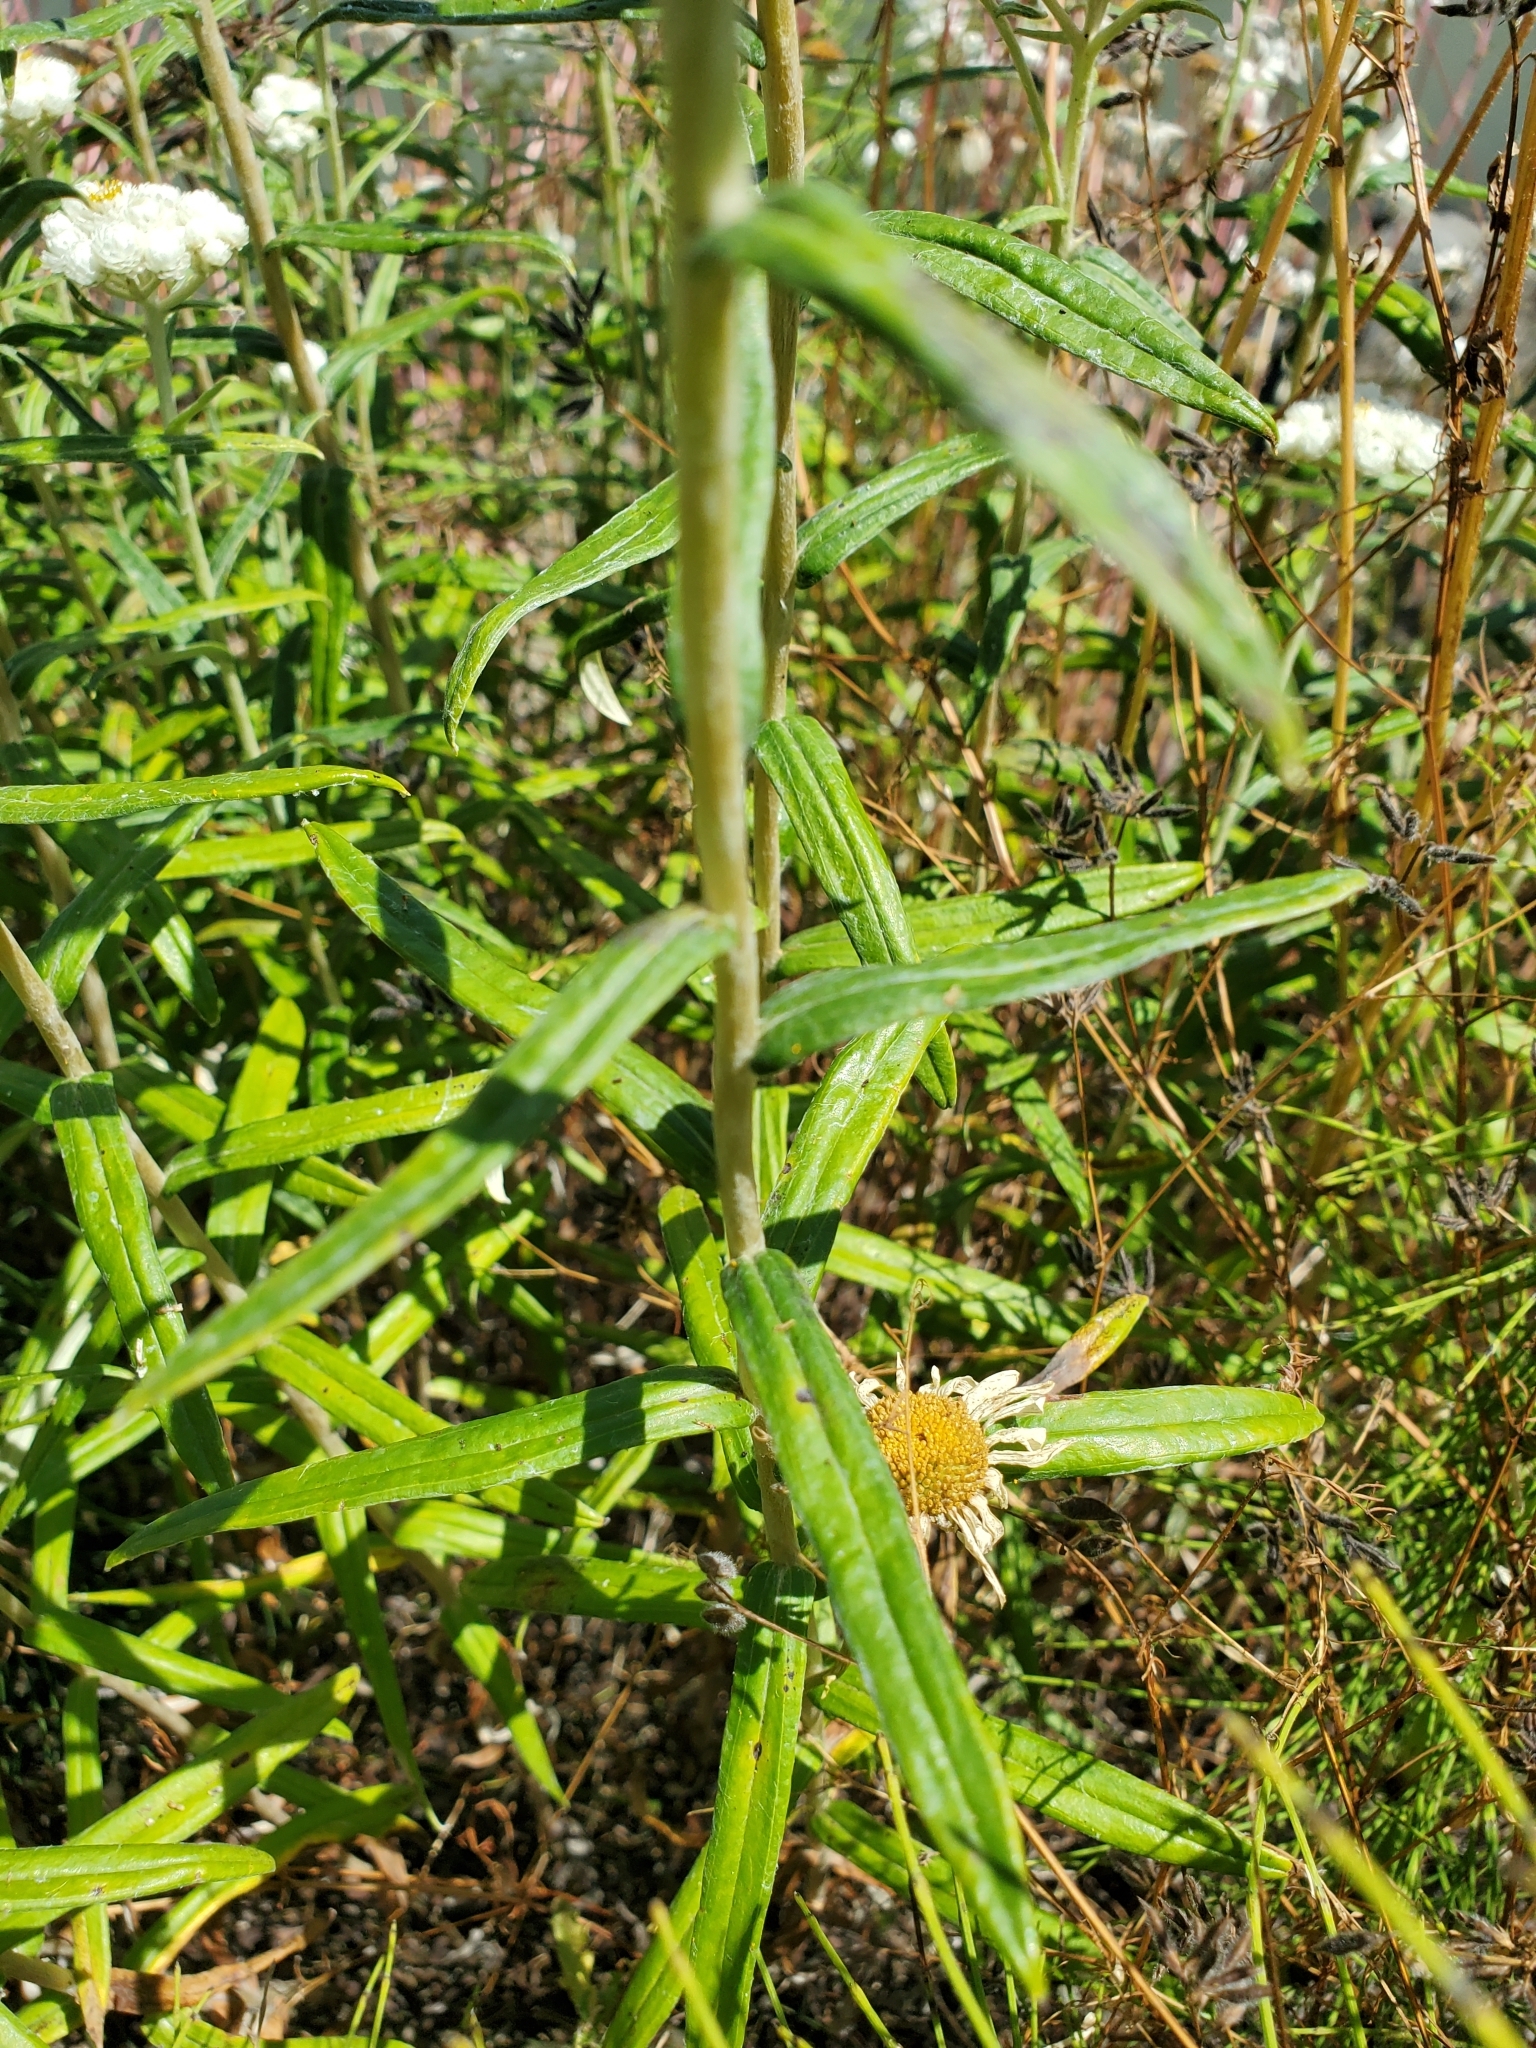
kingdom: Plantae
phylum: Tracheophyta
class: Magnoliopsida
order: Asterales
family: Asteraceae
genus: Anaphalis
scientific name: Anaphalis margaritacea
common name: Pearly everlasting
